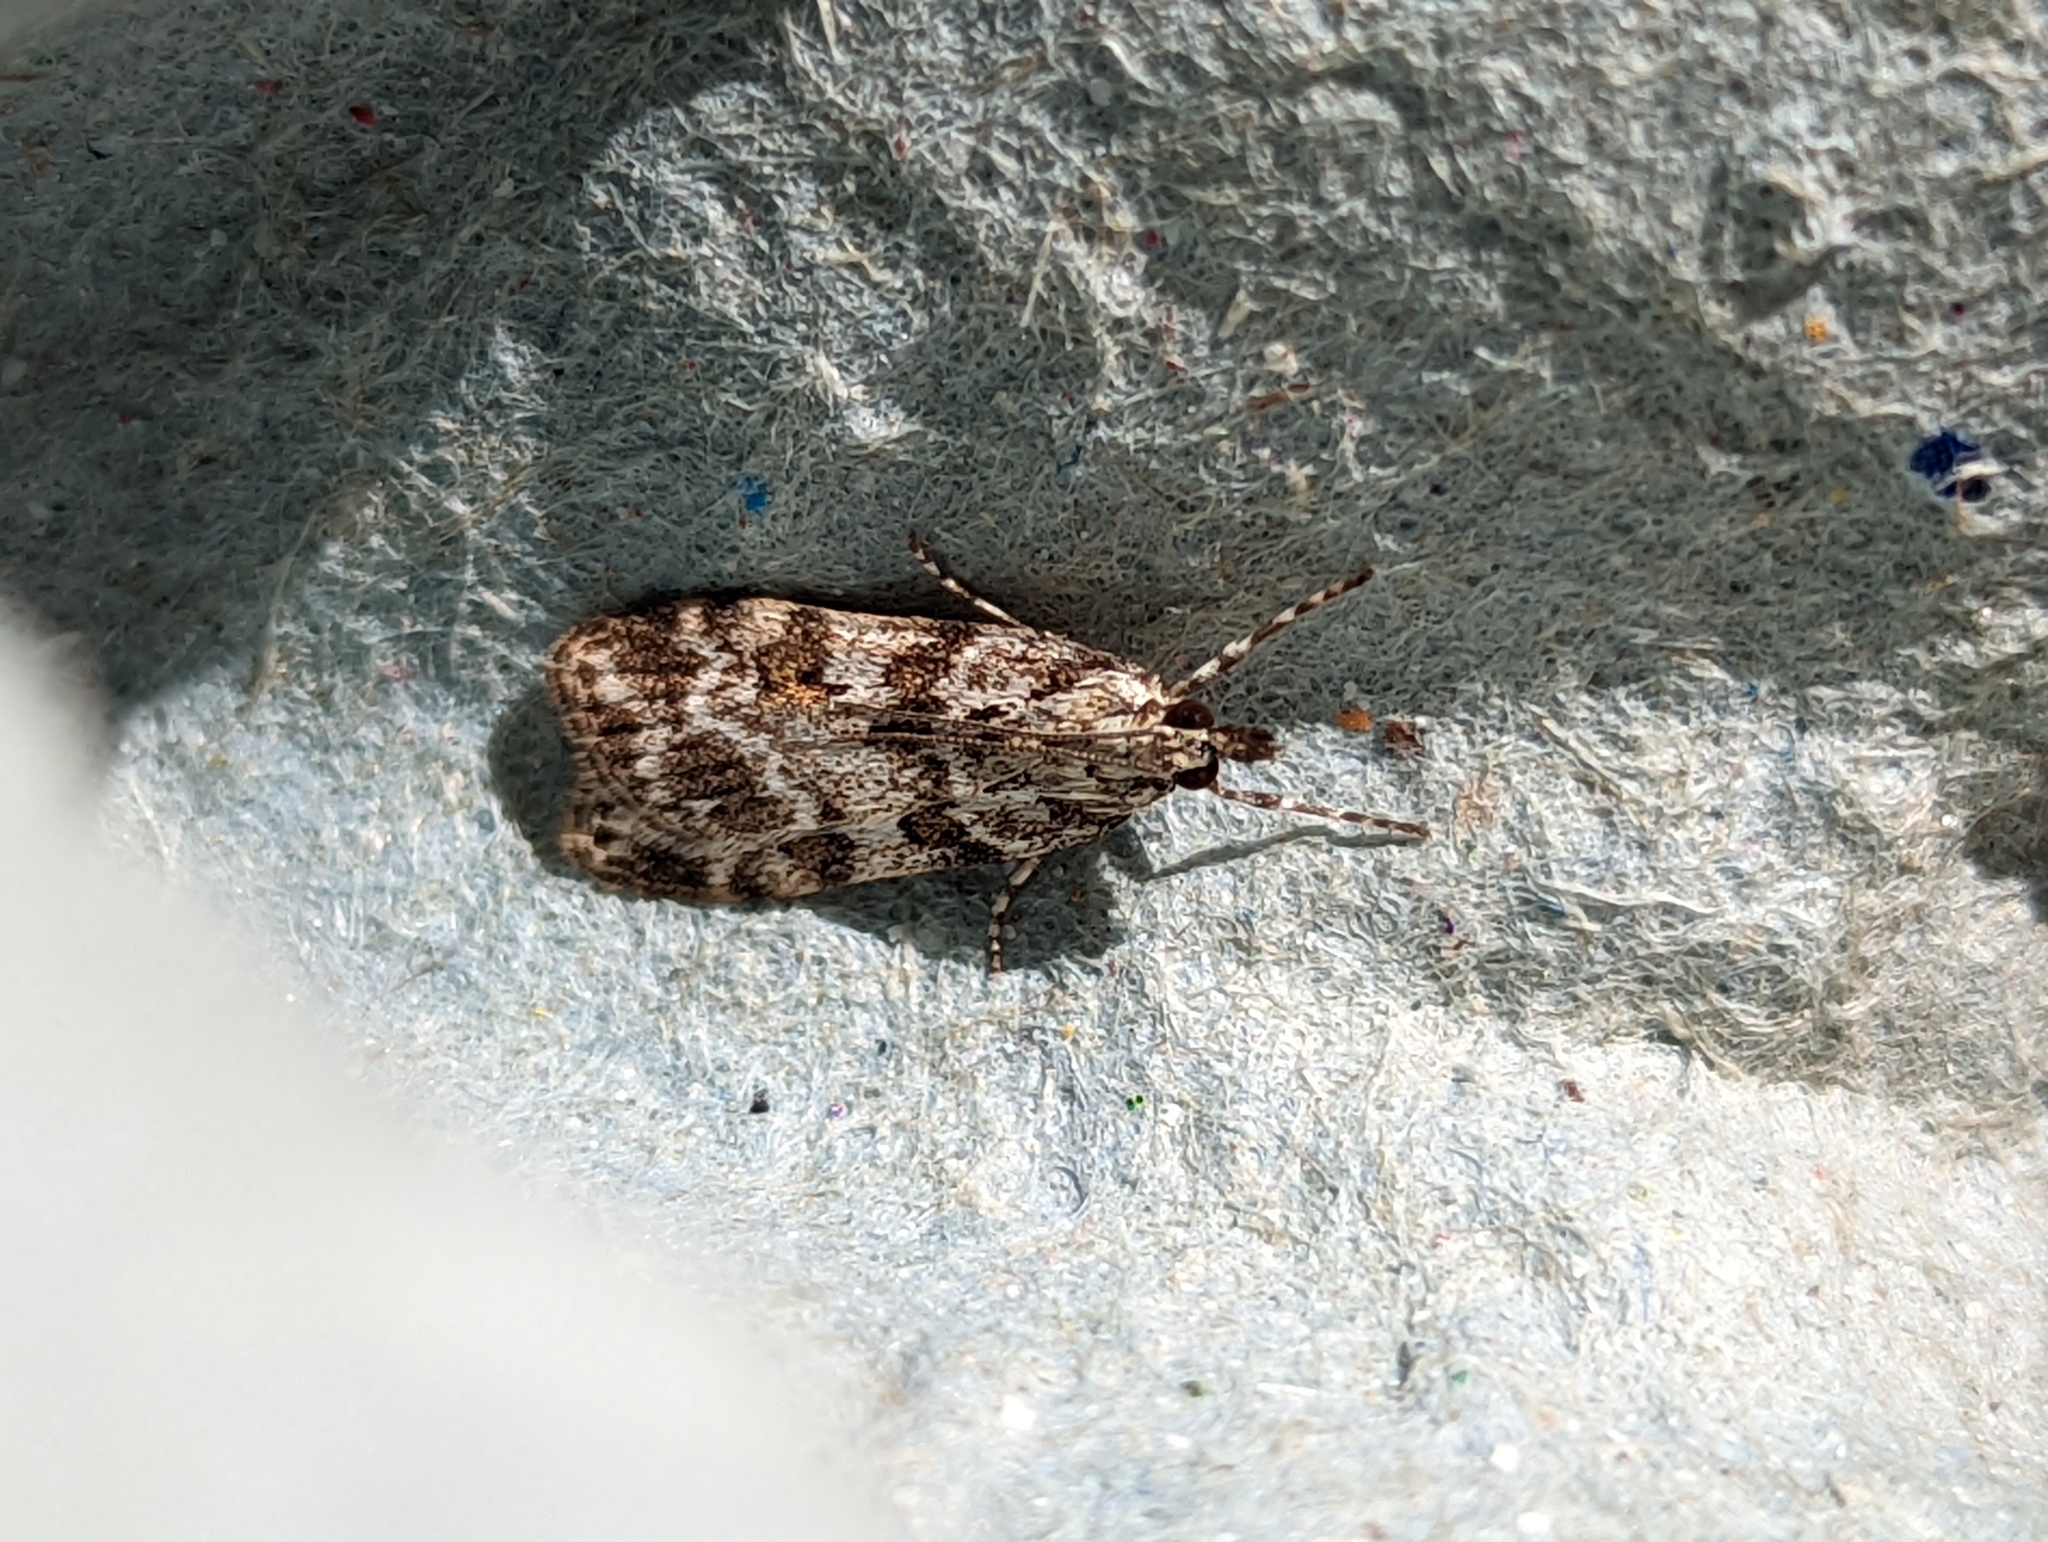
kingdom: Animalia
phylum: Arthropoda
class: Insecta
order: Lepidoptera
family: Crambidae
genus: Scoparia
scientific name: Scoparia pyralella
